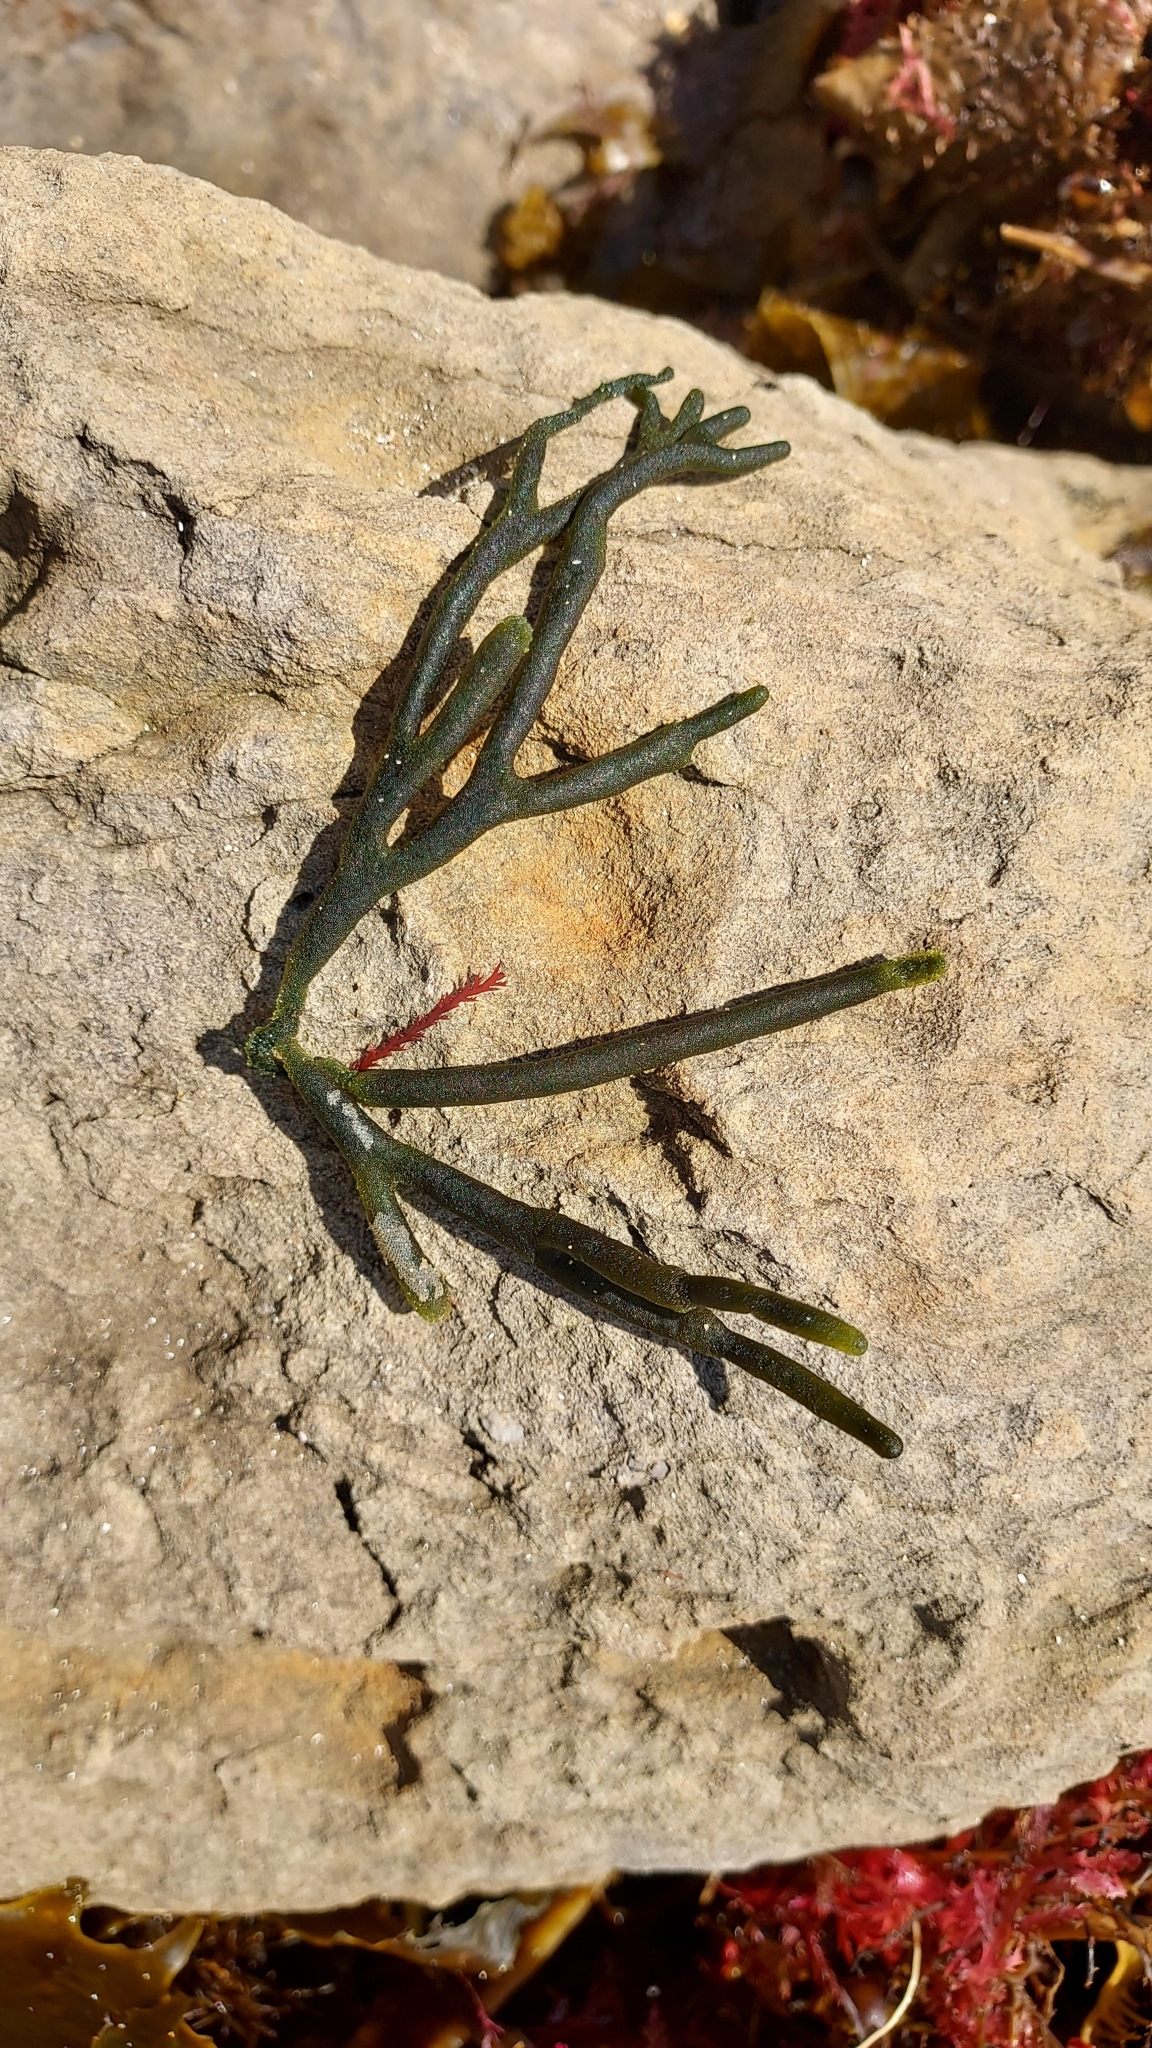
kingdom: Plantae
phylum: Chlorophyta
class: Ulvophyceae
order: Bryopsidales
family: Codiaceae
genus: Codium
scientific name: Codium fragile
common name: Dead man's fingers
